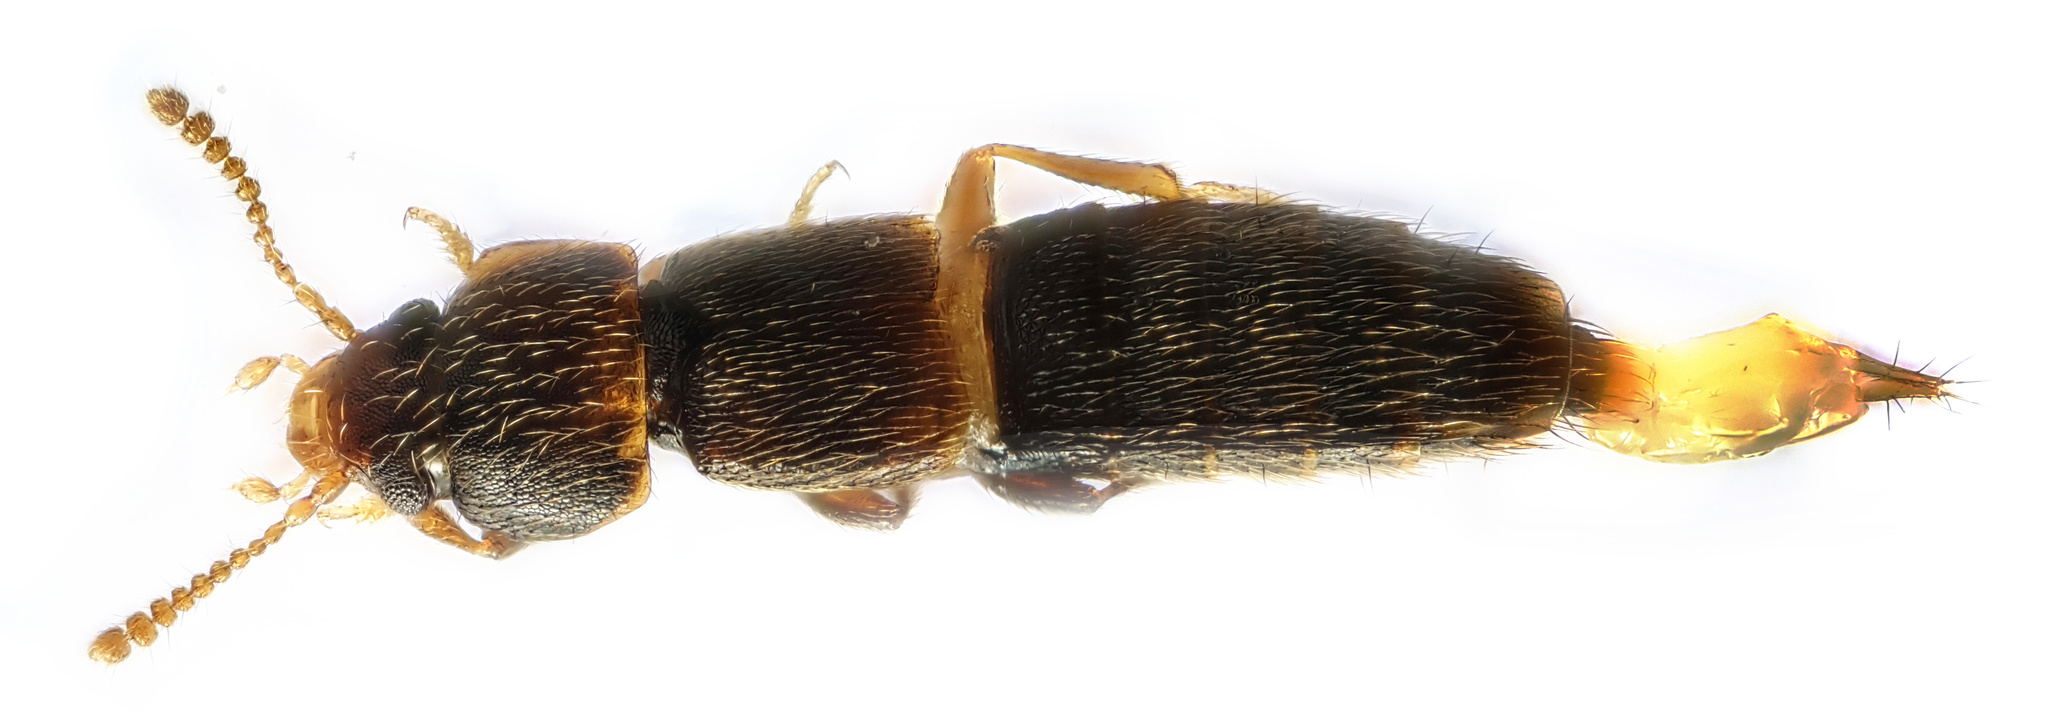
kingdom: Animalia
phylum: Arthropoda
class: Insecta
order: Coleoptera
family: Staphylinidae
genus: Phloeocharis
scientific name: Phloeocharis subtilissima
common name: Staph beetle
